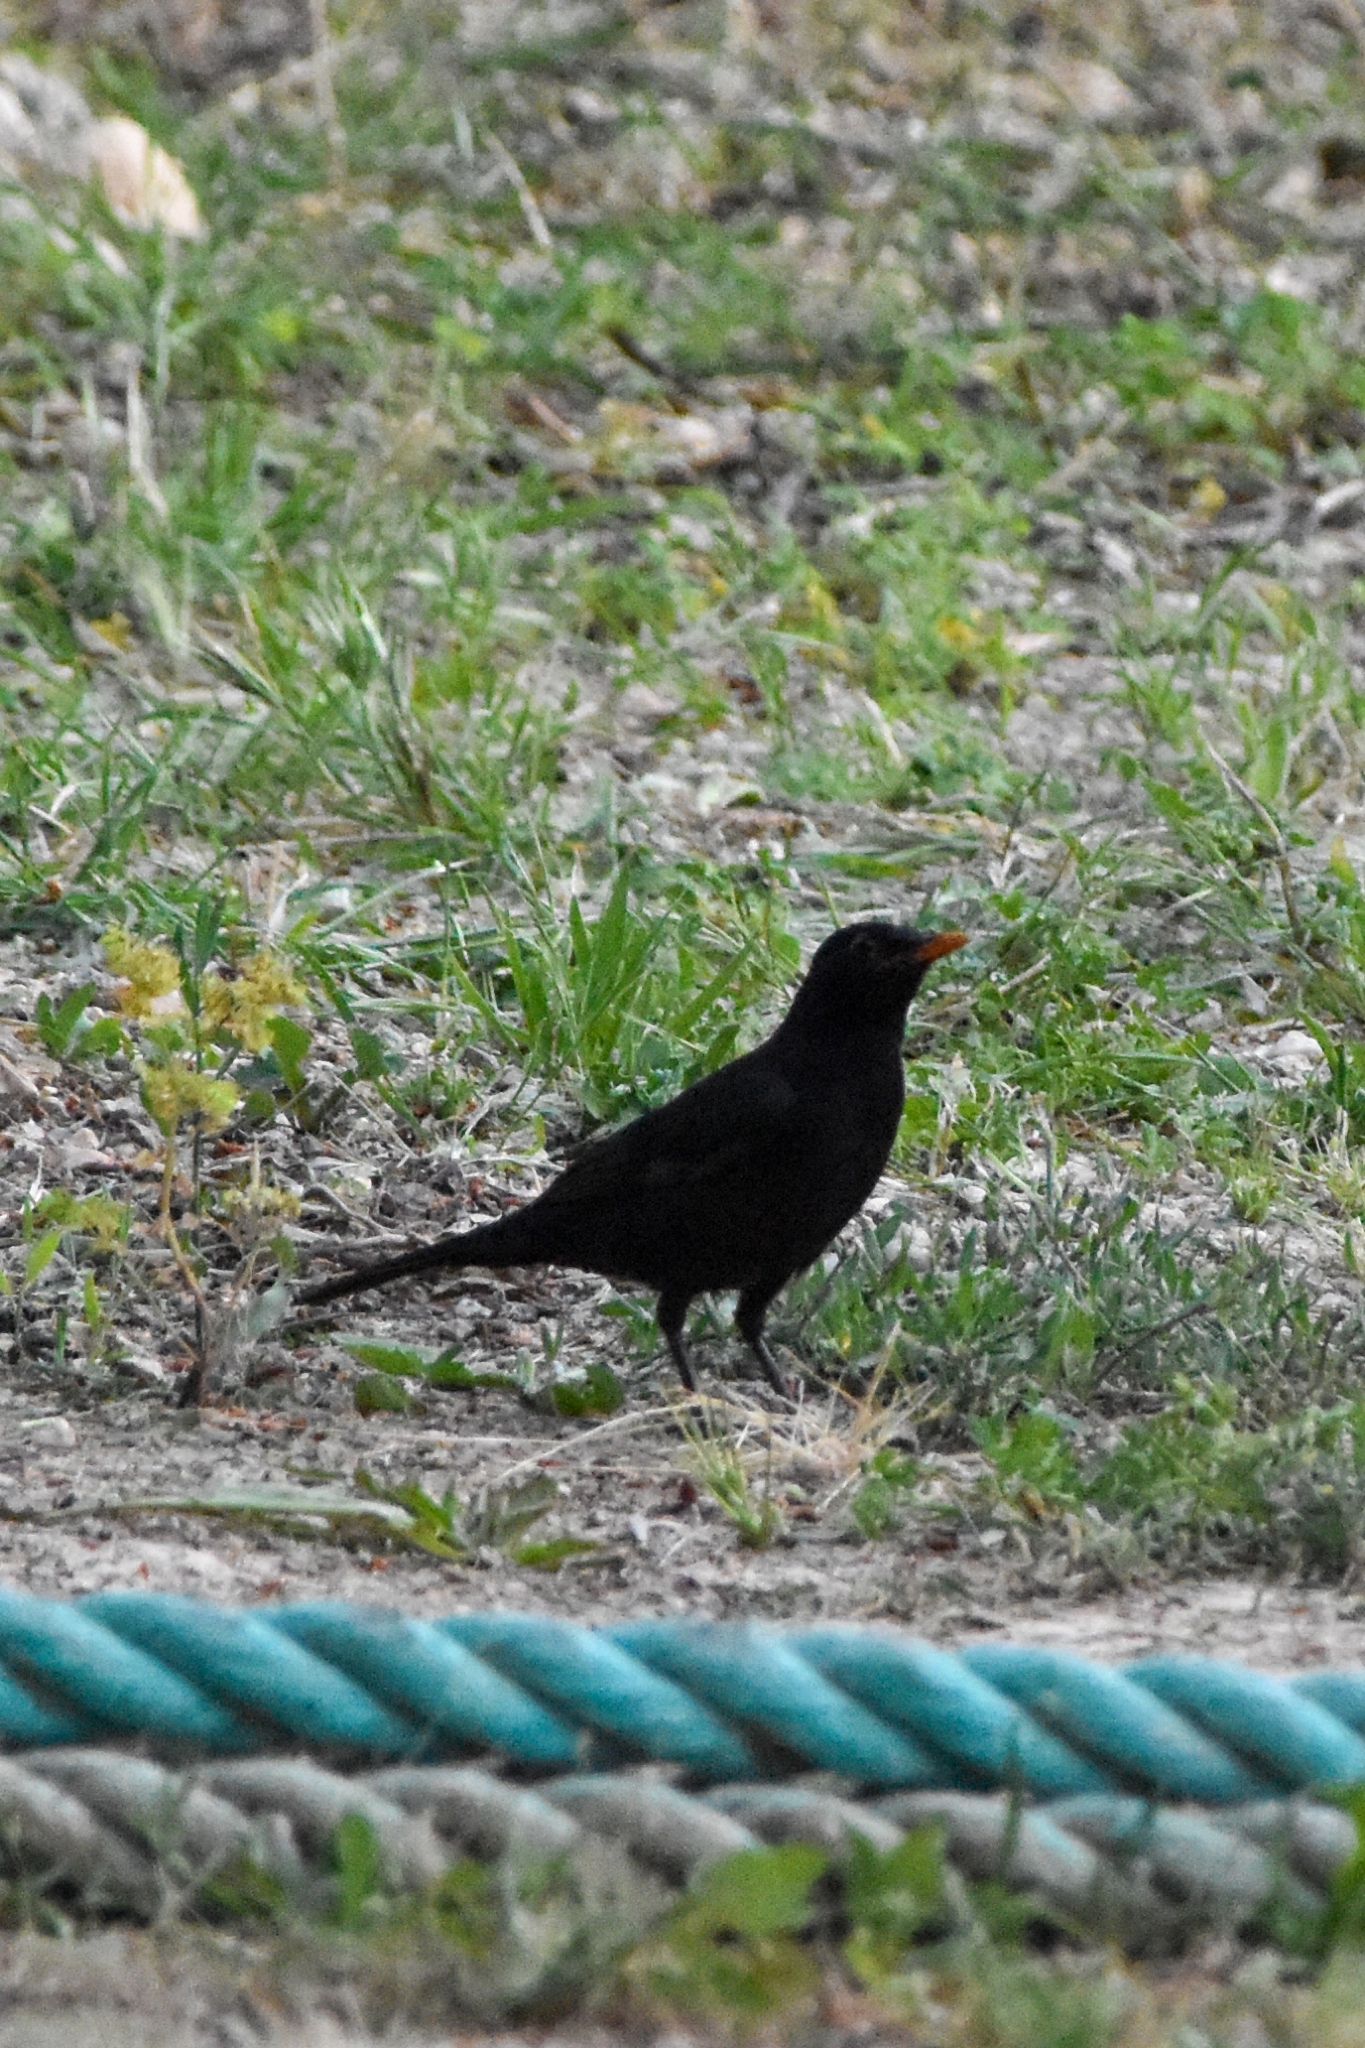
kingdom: Animalia
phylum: Chordata
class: Aves
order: Passeriformes
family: Turdidae
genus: Turdus
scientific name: Turdus merula
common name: Common blackbird
